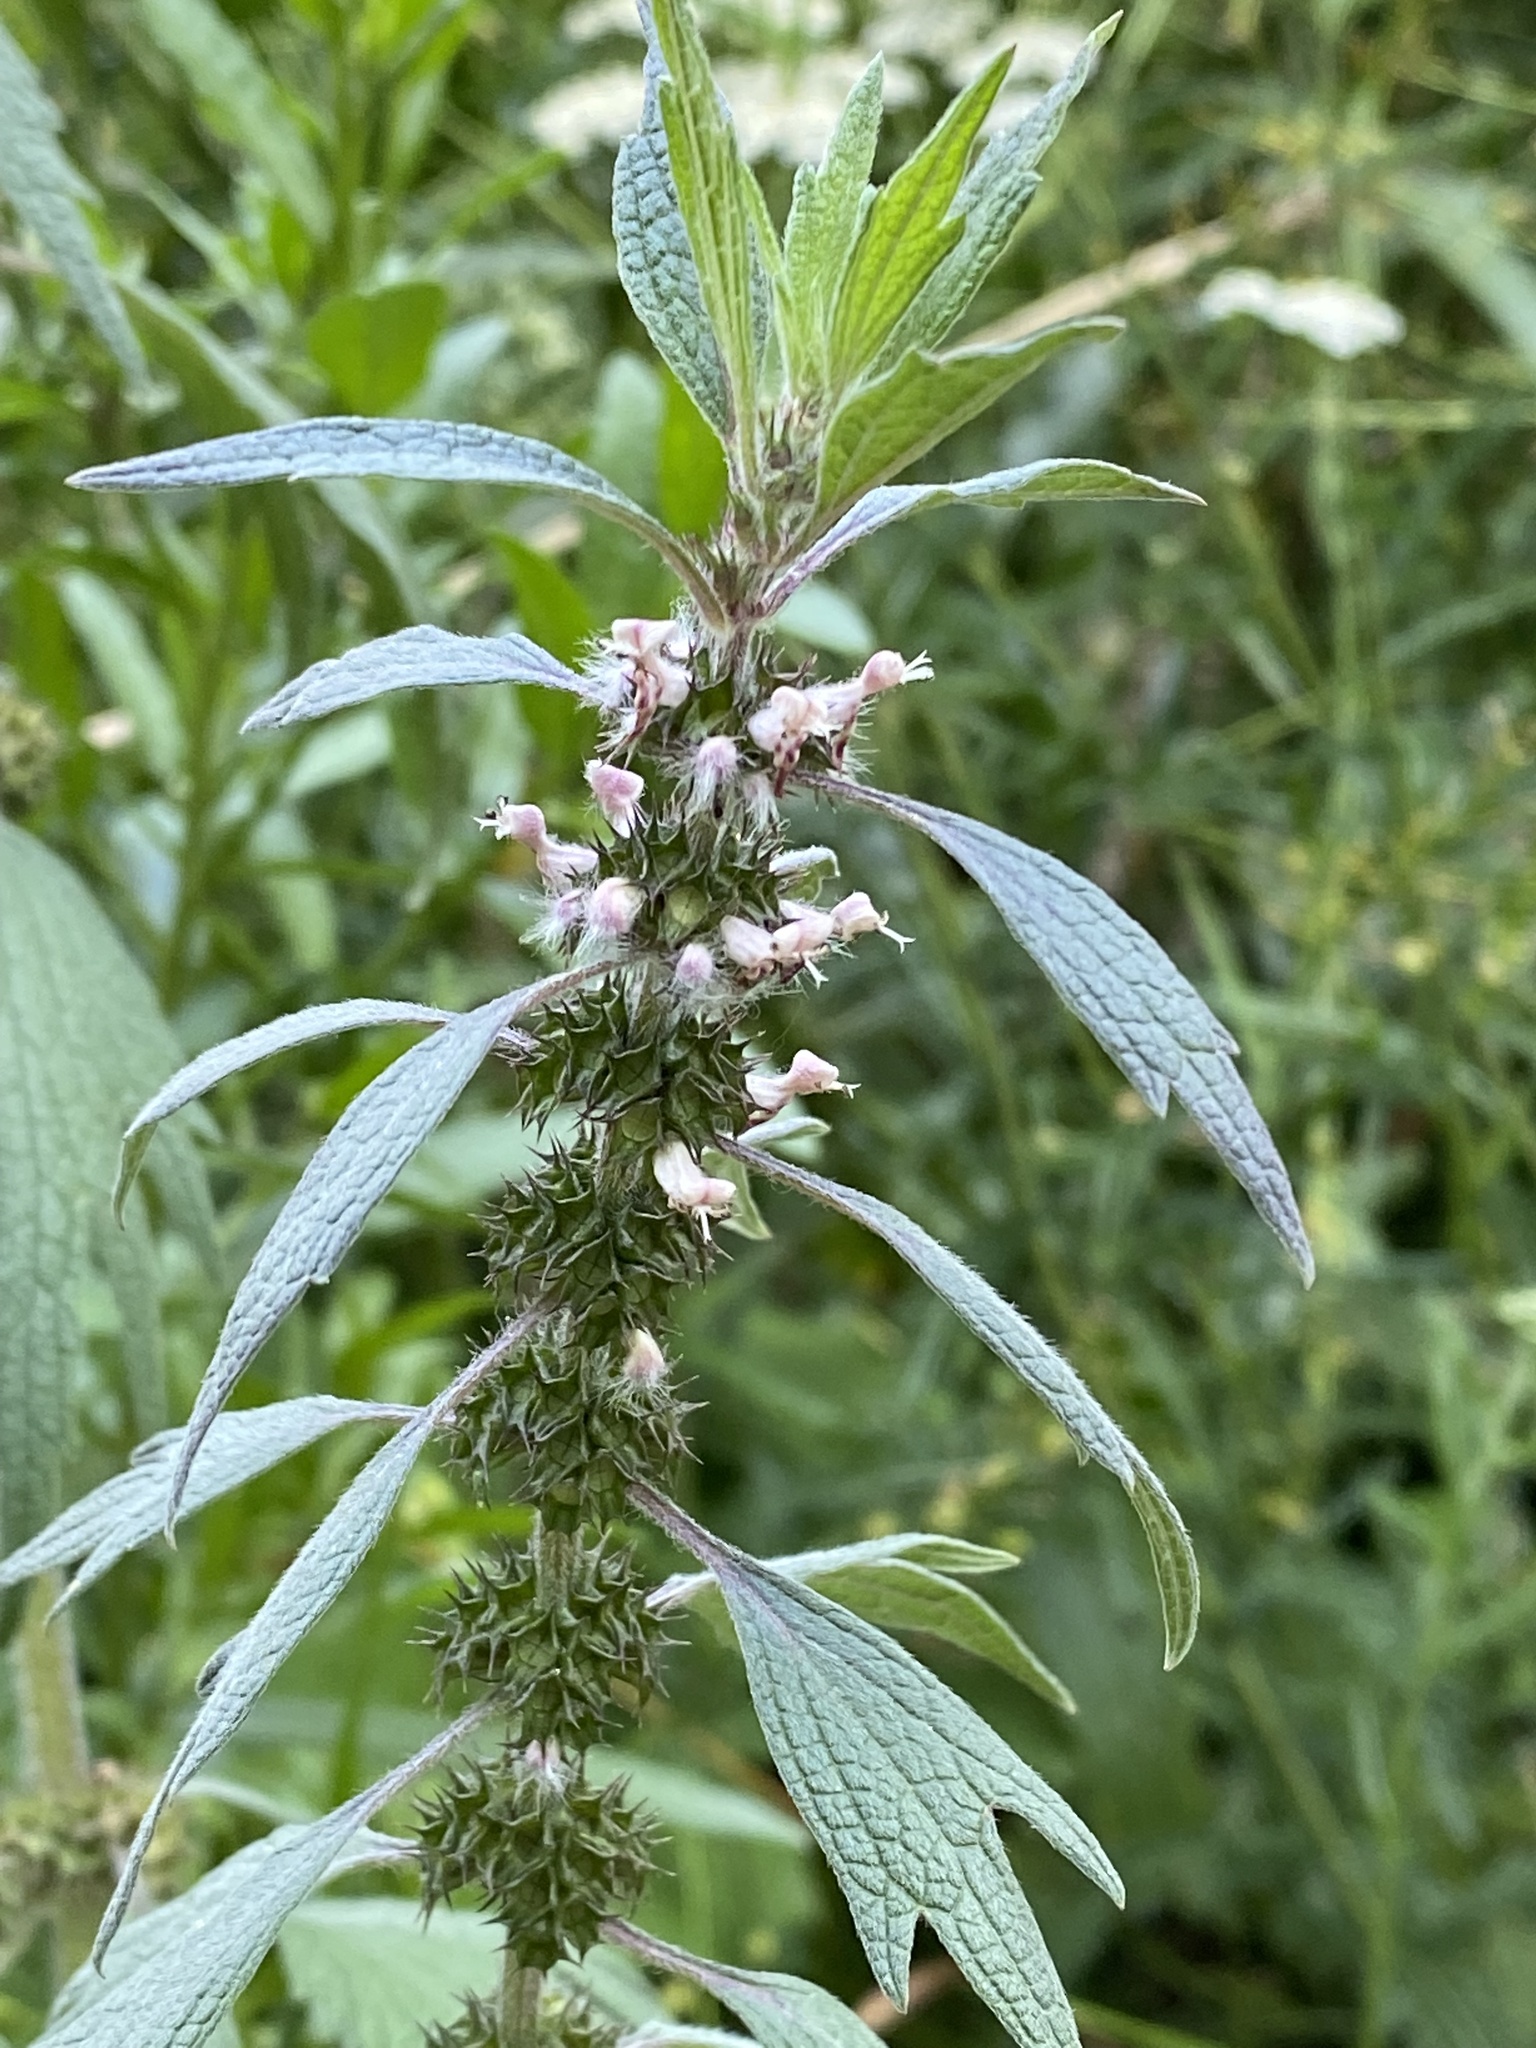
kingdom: Plantae
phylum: Tracheophyta
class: Magnoliopsida
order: Lamiales
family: Lamiaceae
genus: Leonurus
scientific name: Leonurus quinquelobatus
